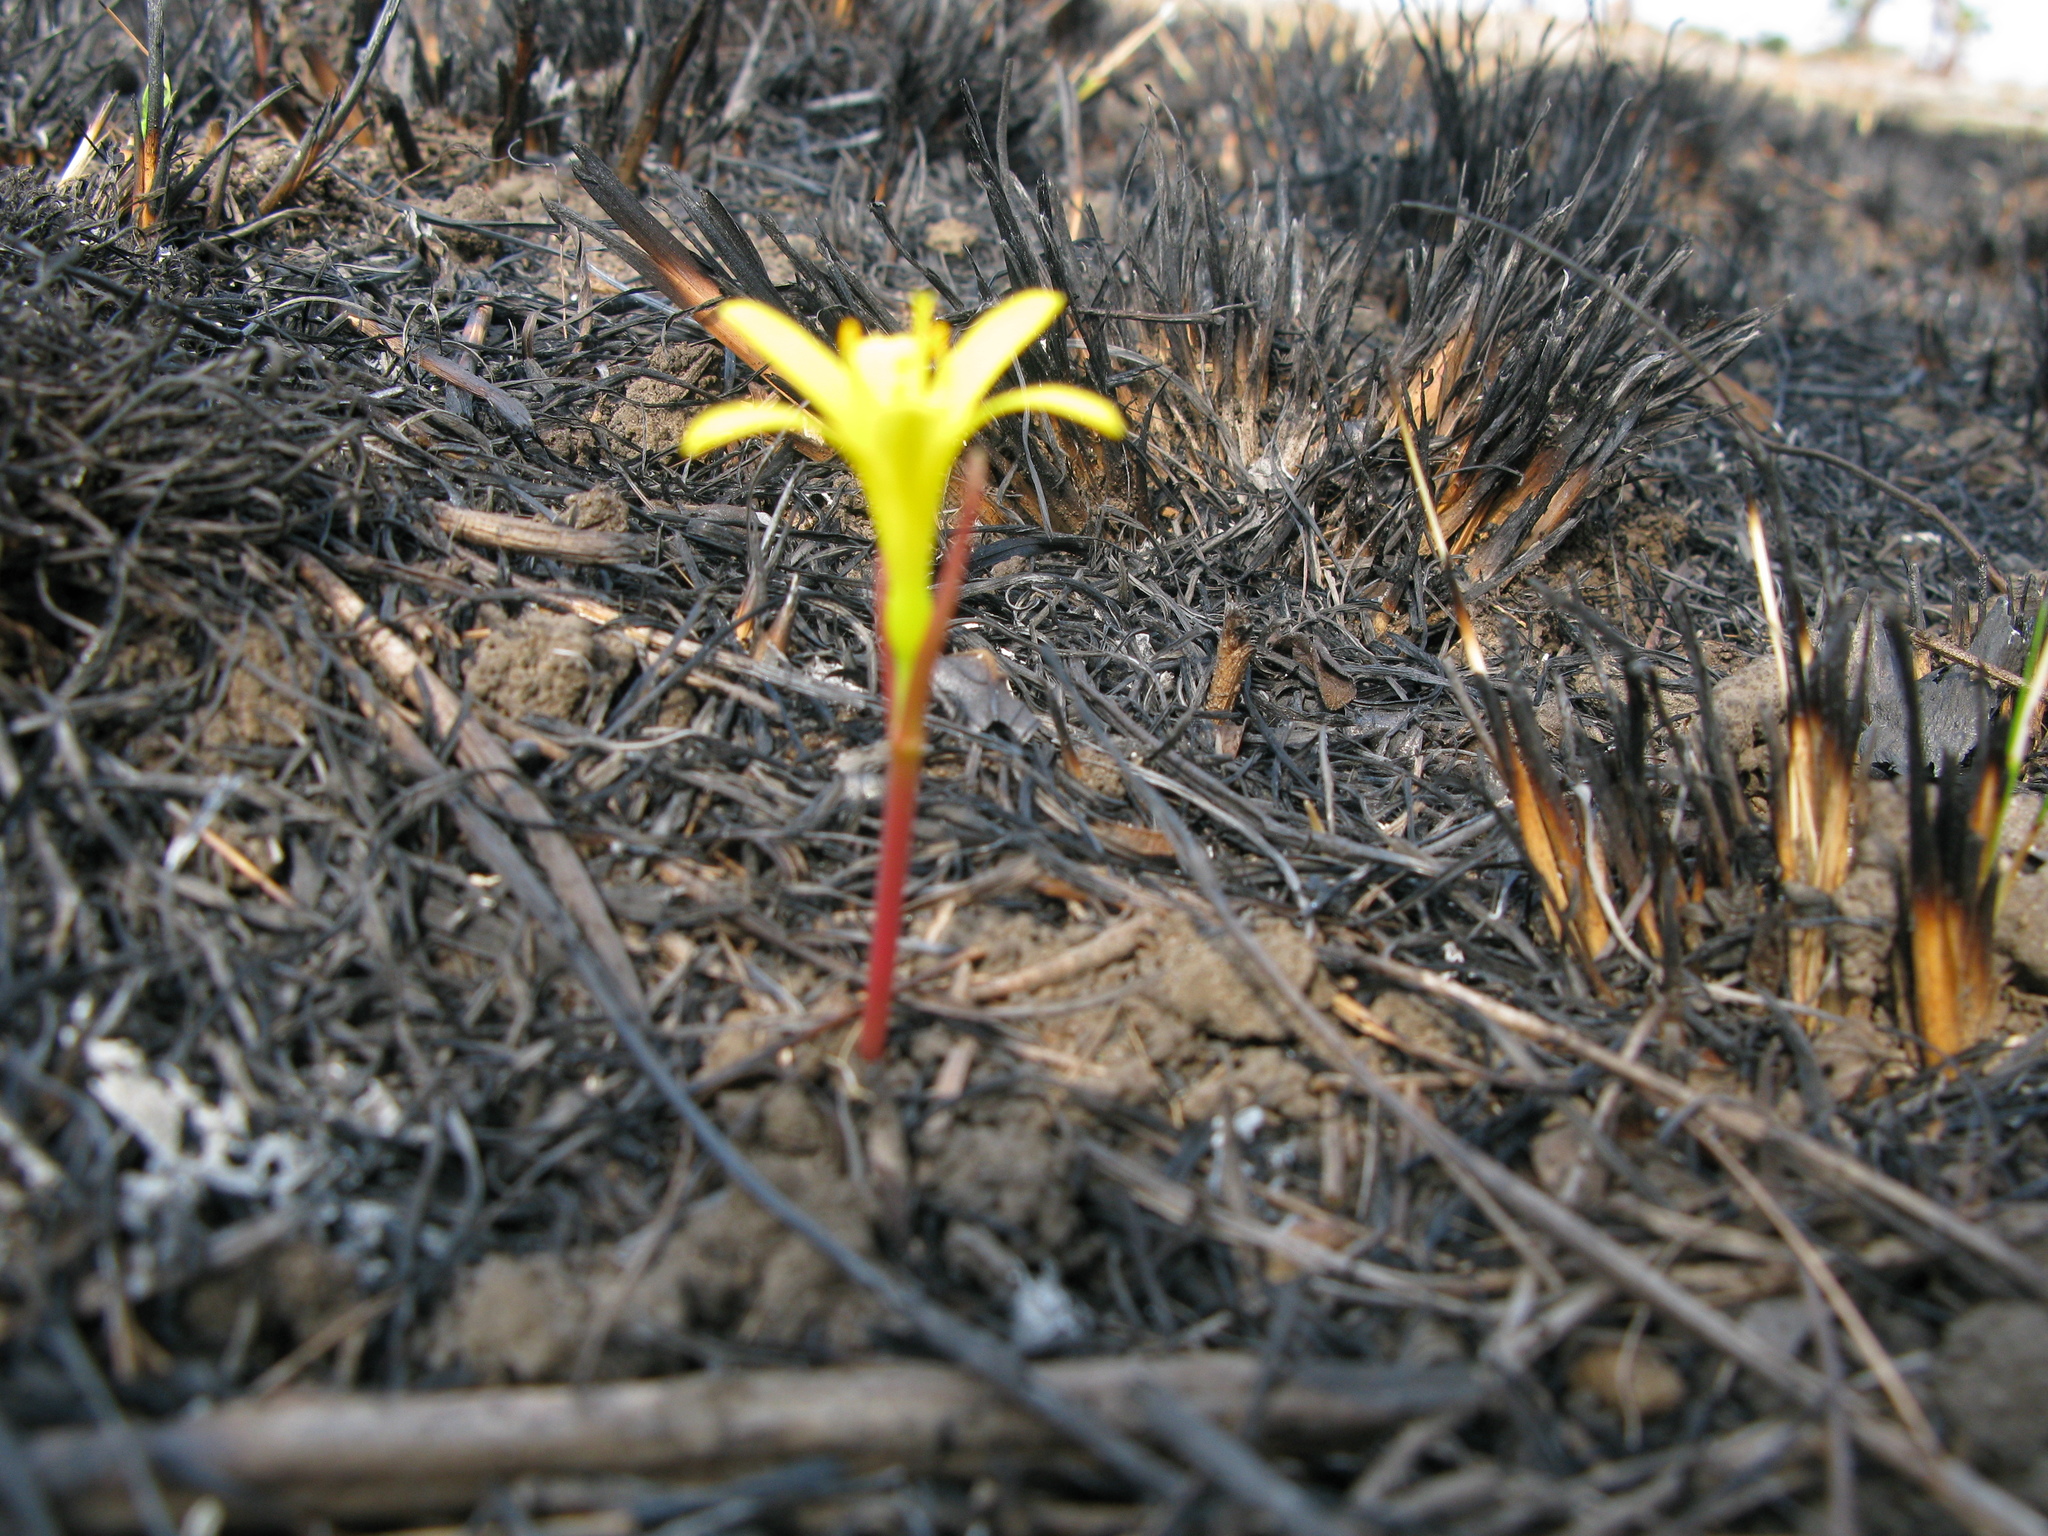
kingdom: Plantae
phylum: Tracheophyta
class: Liliopsida
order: Asparagales
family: Amaryllidaceae
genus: Cyrtanthus
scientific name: Cyrtanthus breviflorus
